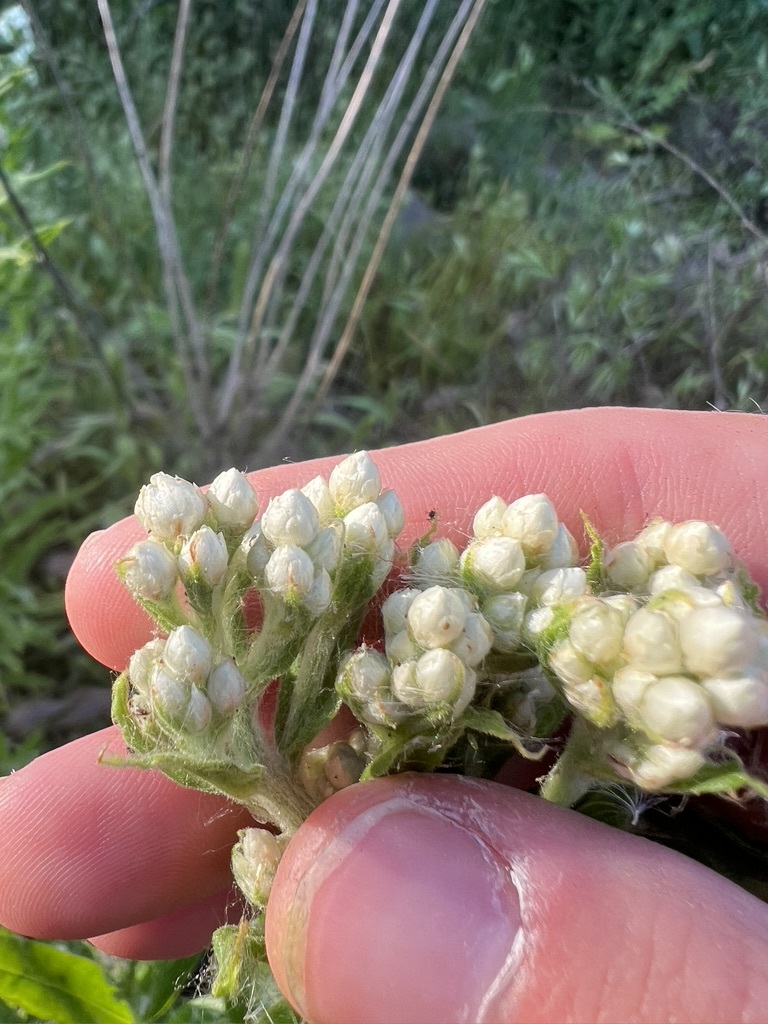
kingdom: Plantae
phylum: Tracheophyta
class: Magnoliopsida
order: Asterales
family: Asteraceae
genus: Pseudognaphalium
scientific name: Pseudognaphalium californicum
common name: California rabbit-tobacco
